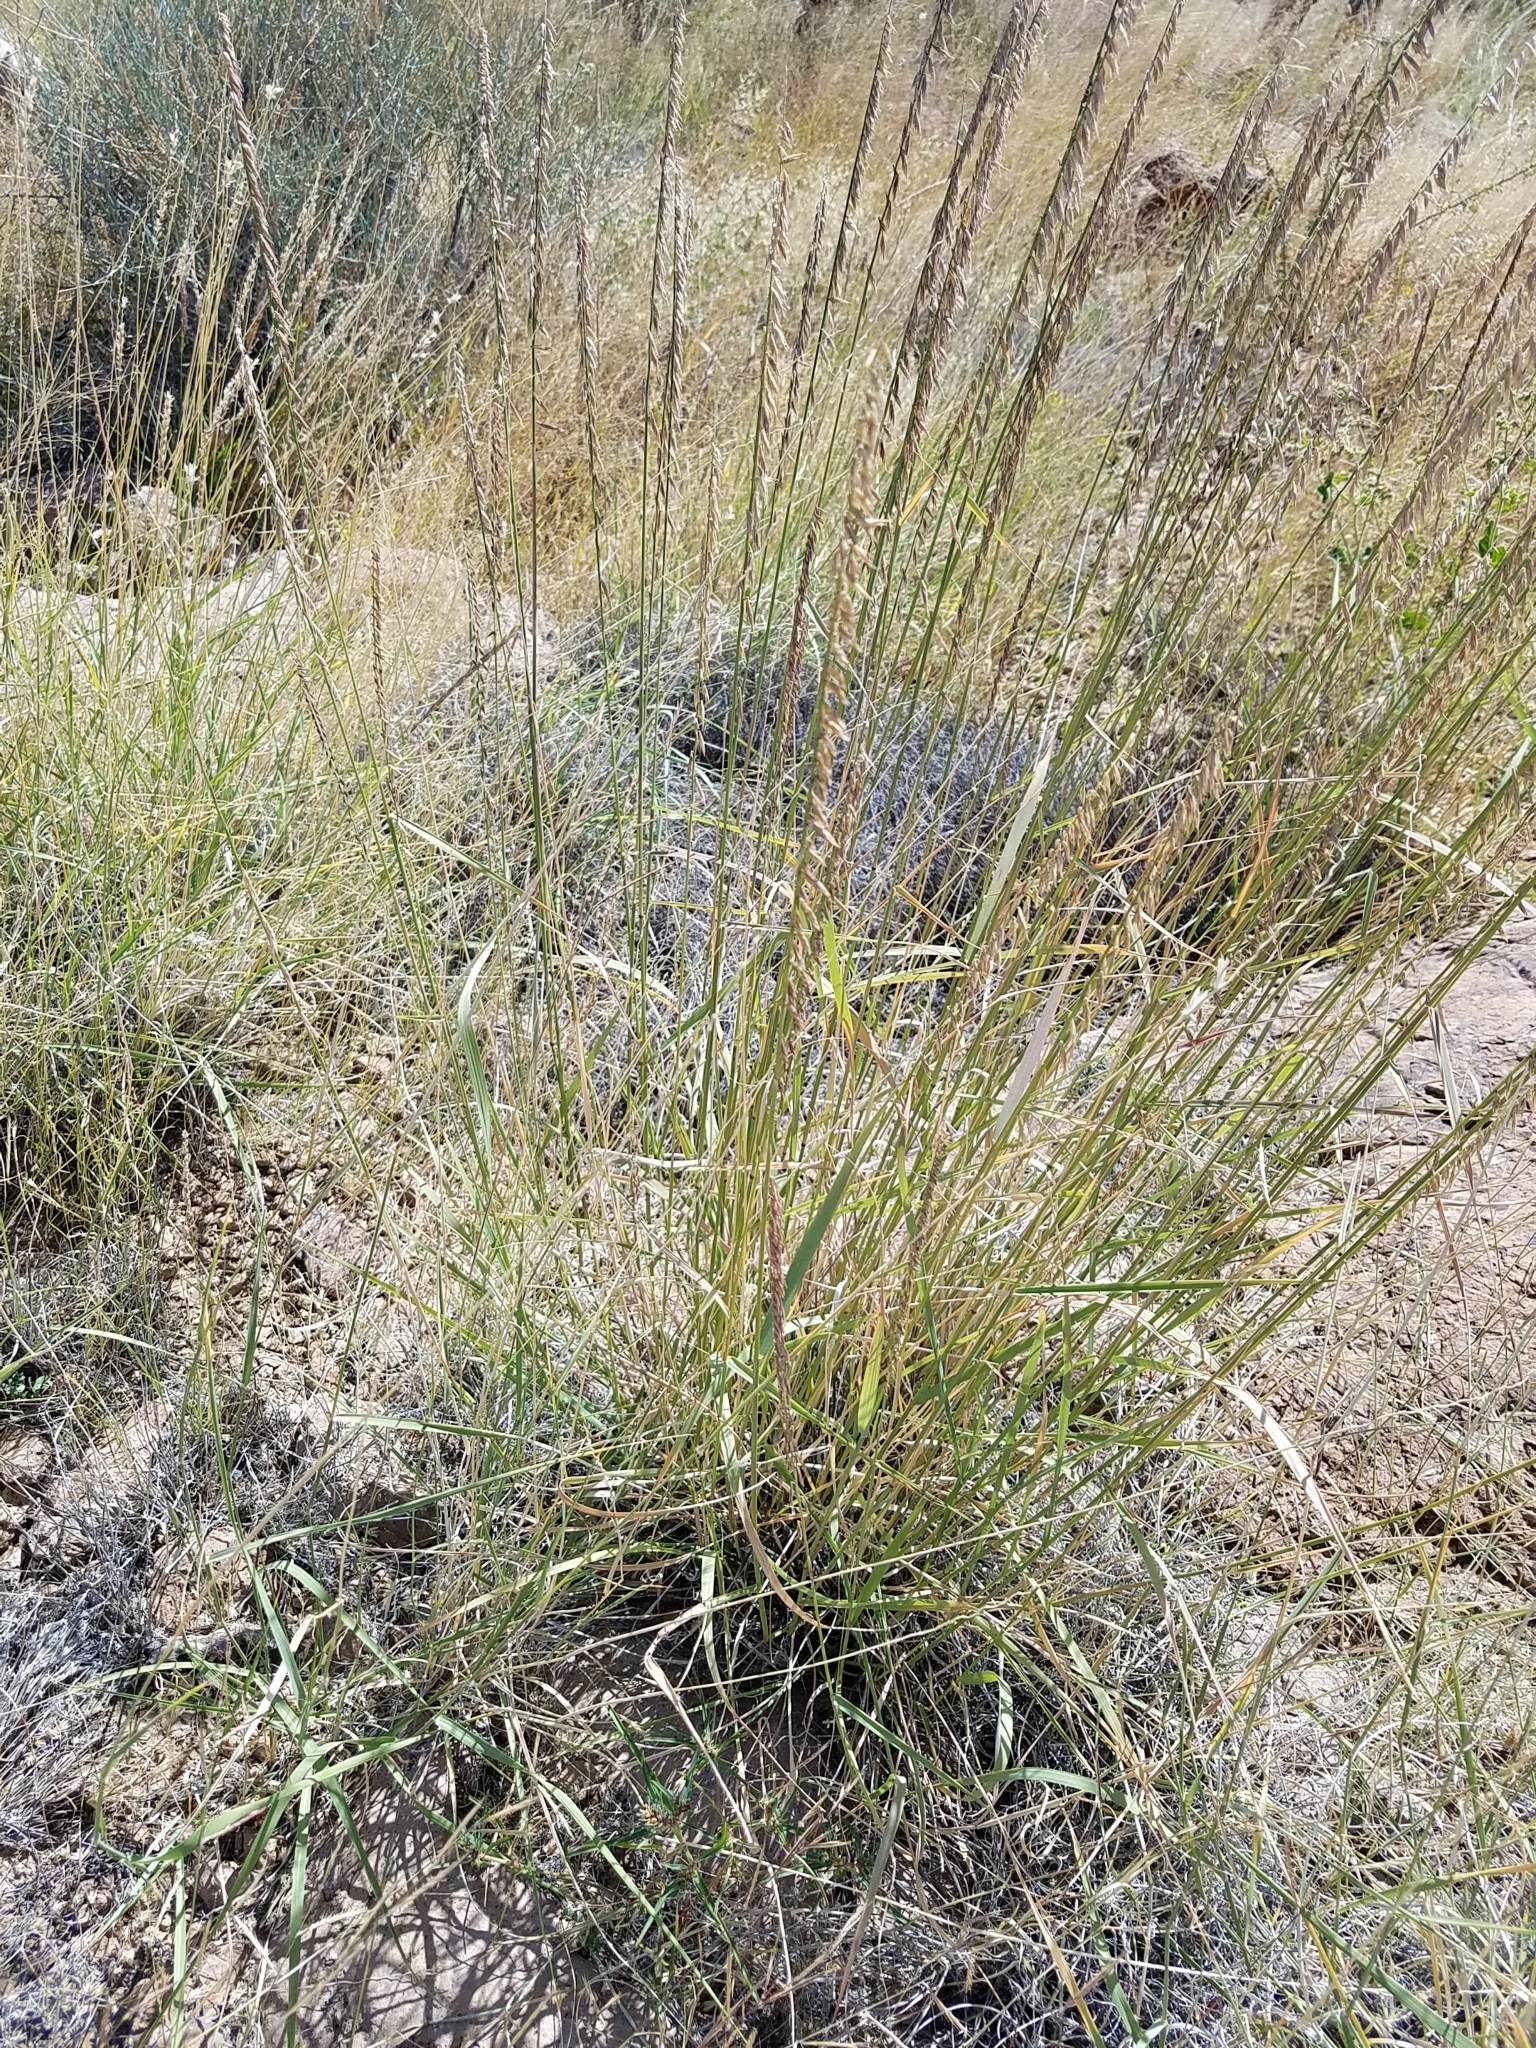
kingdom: Plantae
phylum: Tracheophyta
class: Liliopsida
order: Poales
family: Poaceae
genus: Bouteloua
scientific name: Bouteloua curtipendula
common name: Side-oats grama
